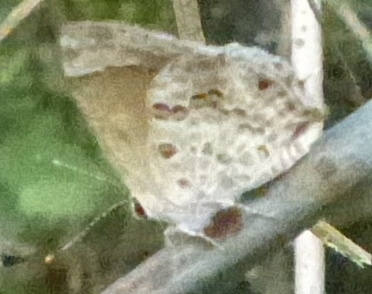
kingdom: Animalia
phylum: Arthropoda
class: Insecta
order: Lepidoptera
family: Lycaenidae
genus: Strymon
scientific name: Strymon astiocha
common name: Gray-spotted scrub-hairstreak
